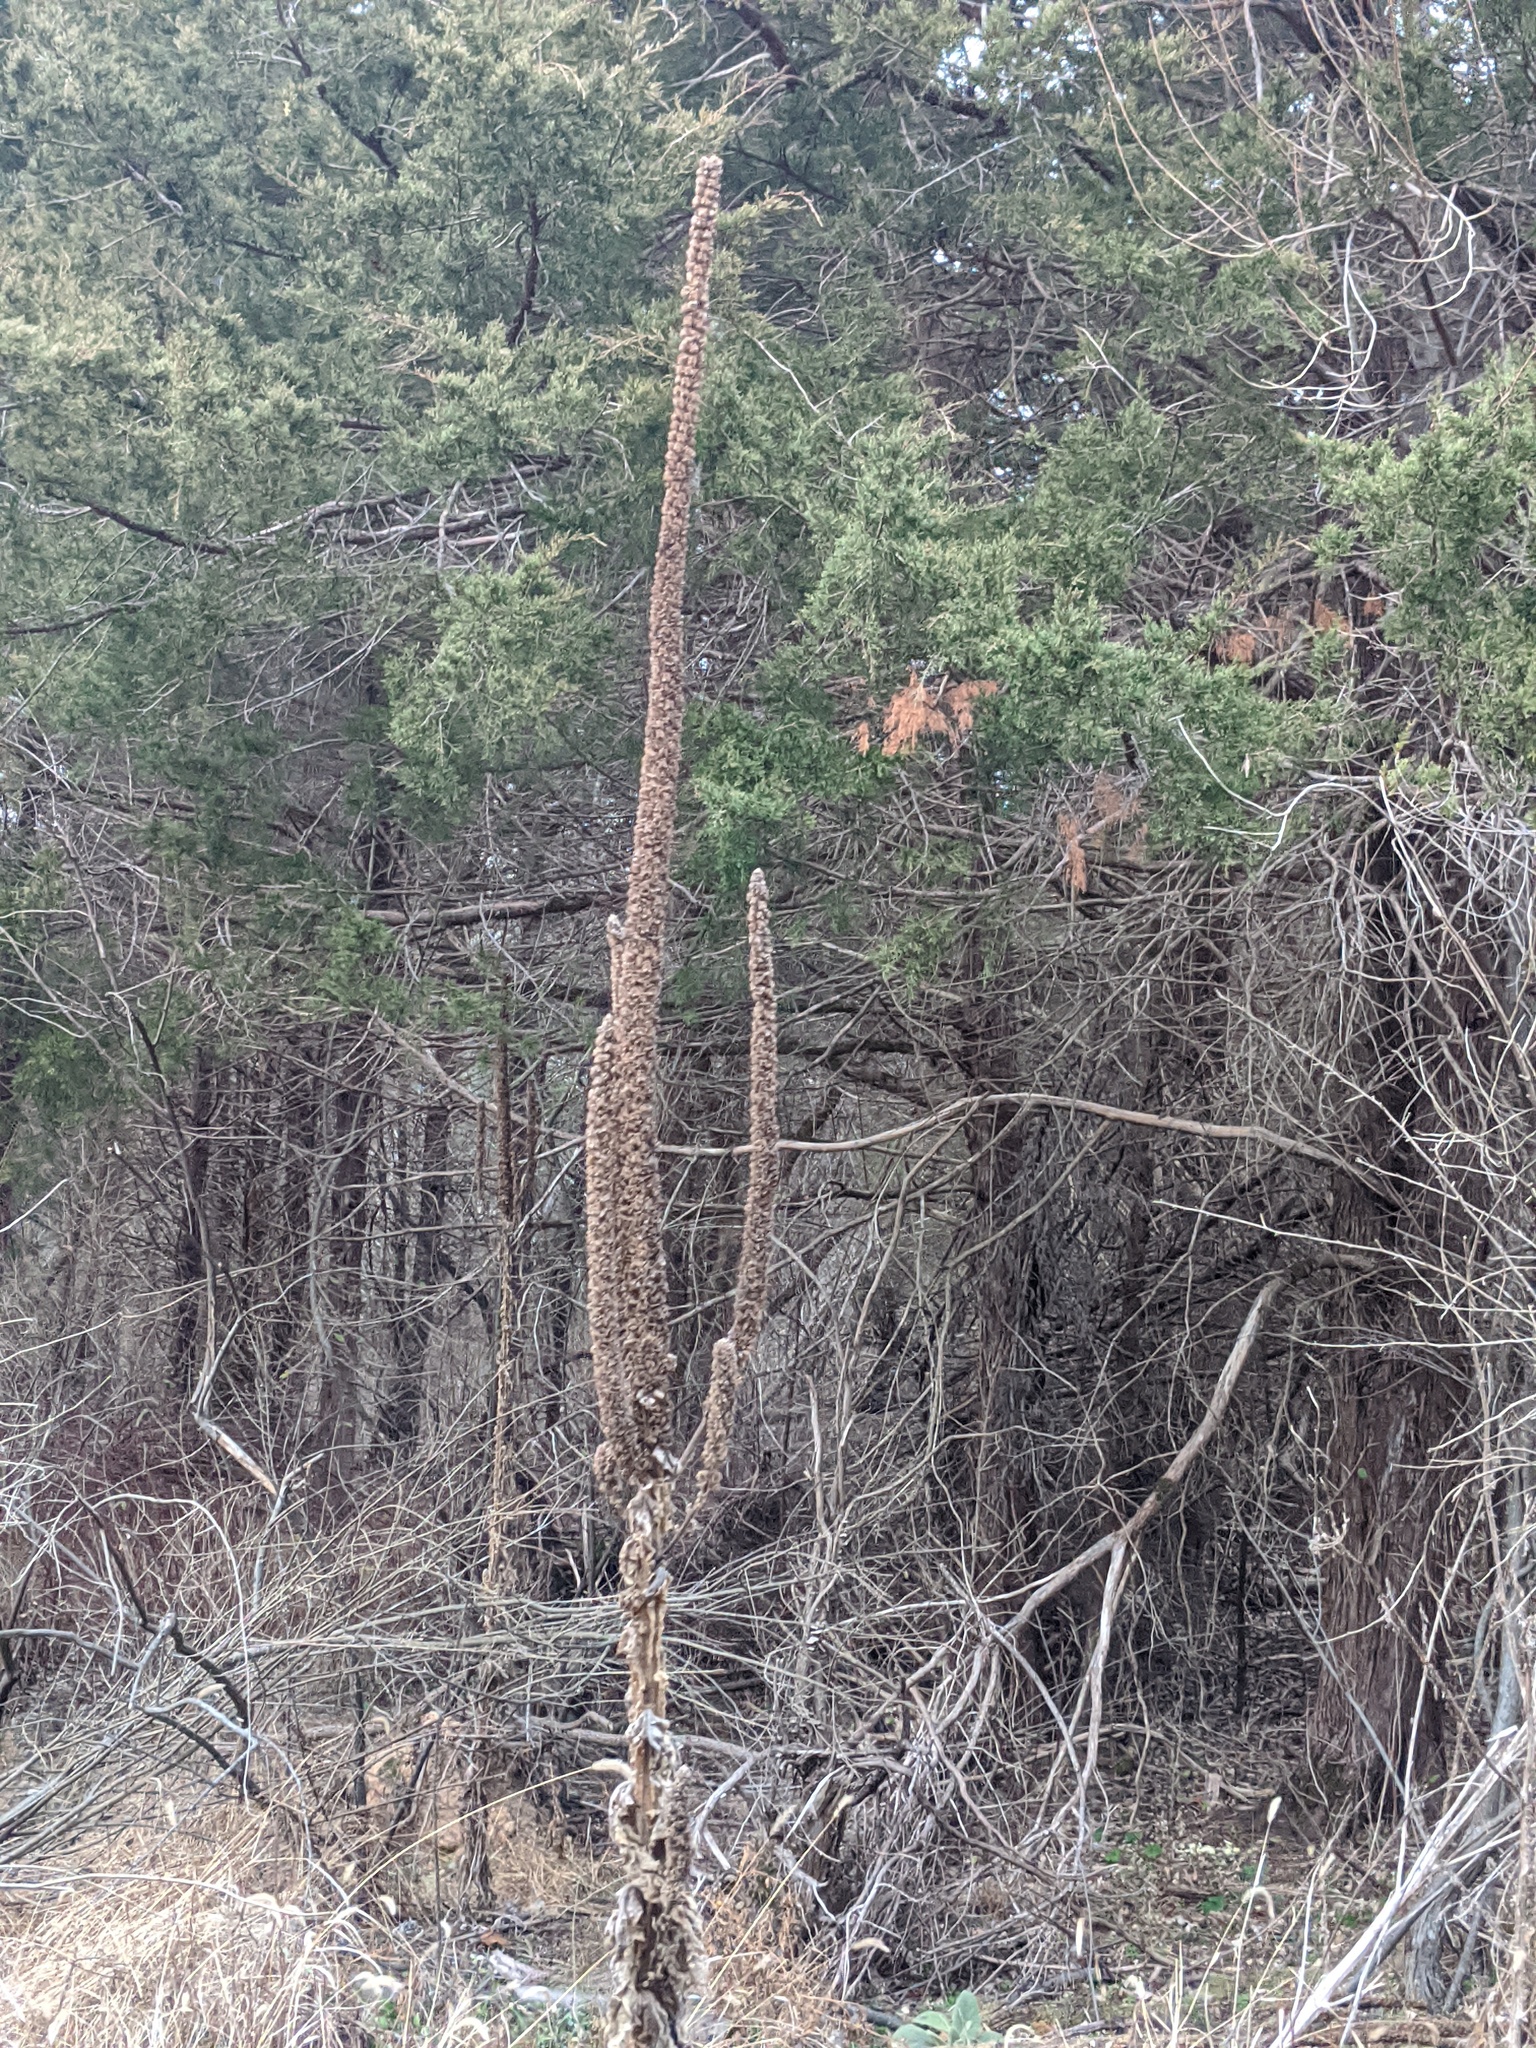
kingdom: Plantae
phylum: Tracheophyta
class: Magnoliopsida
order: Lamiales
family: Scrophulariaceae
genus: Verbascum
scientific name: Verbascum thapsus
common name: Common mullein
